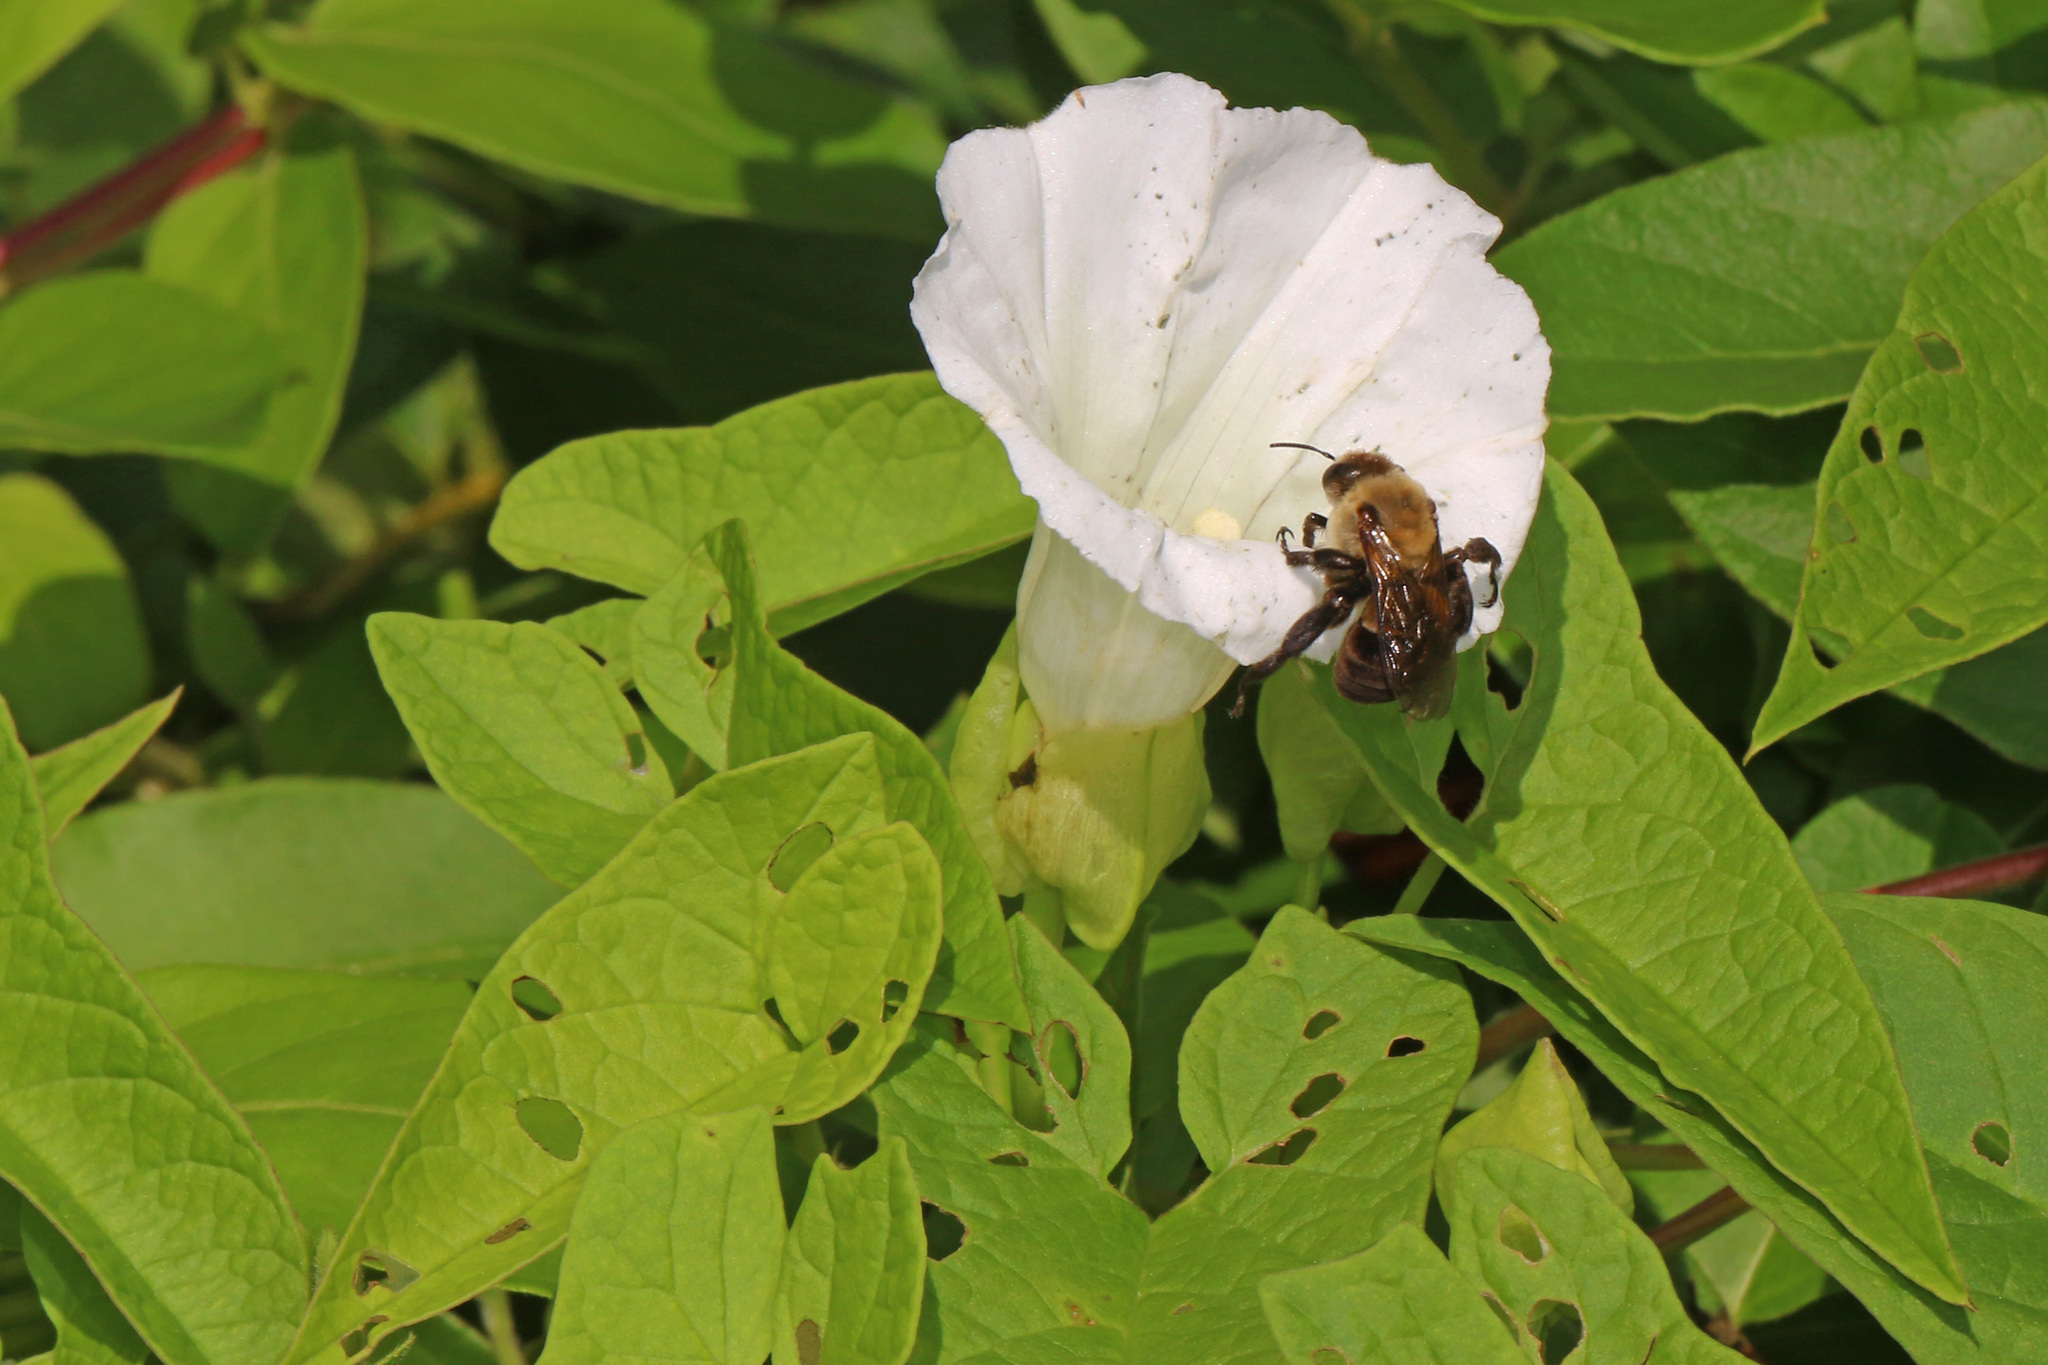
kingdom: Plantae
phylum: Tracheophyta
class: Magnoliopsida
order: Solanales
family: Convolvulaceae
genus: Calystegia
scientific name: Calystegia sepium
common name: Hedge bindweed
